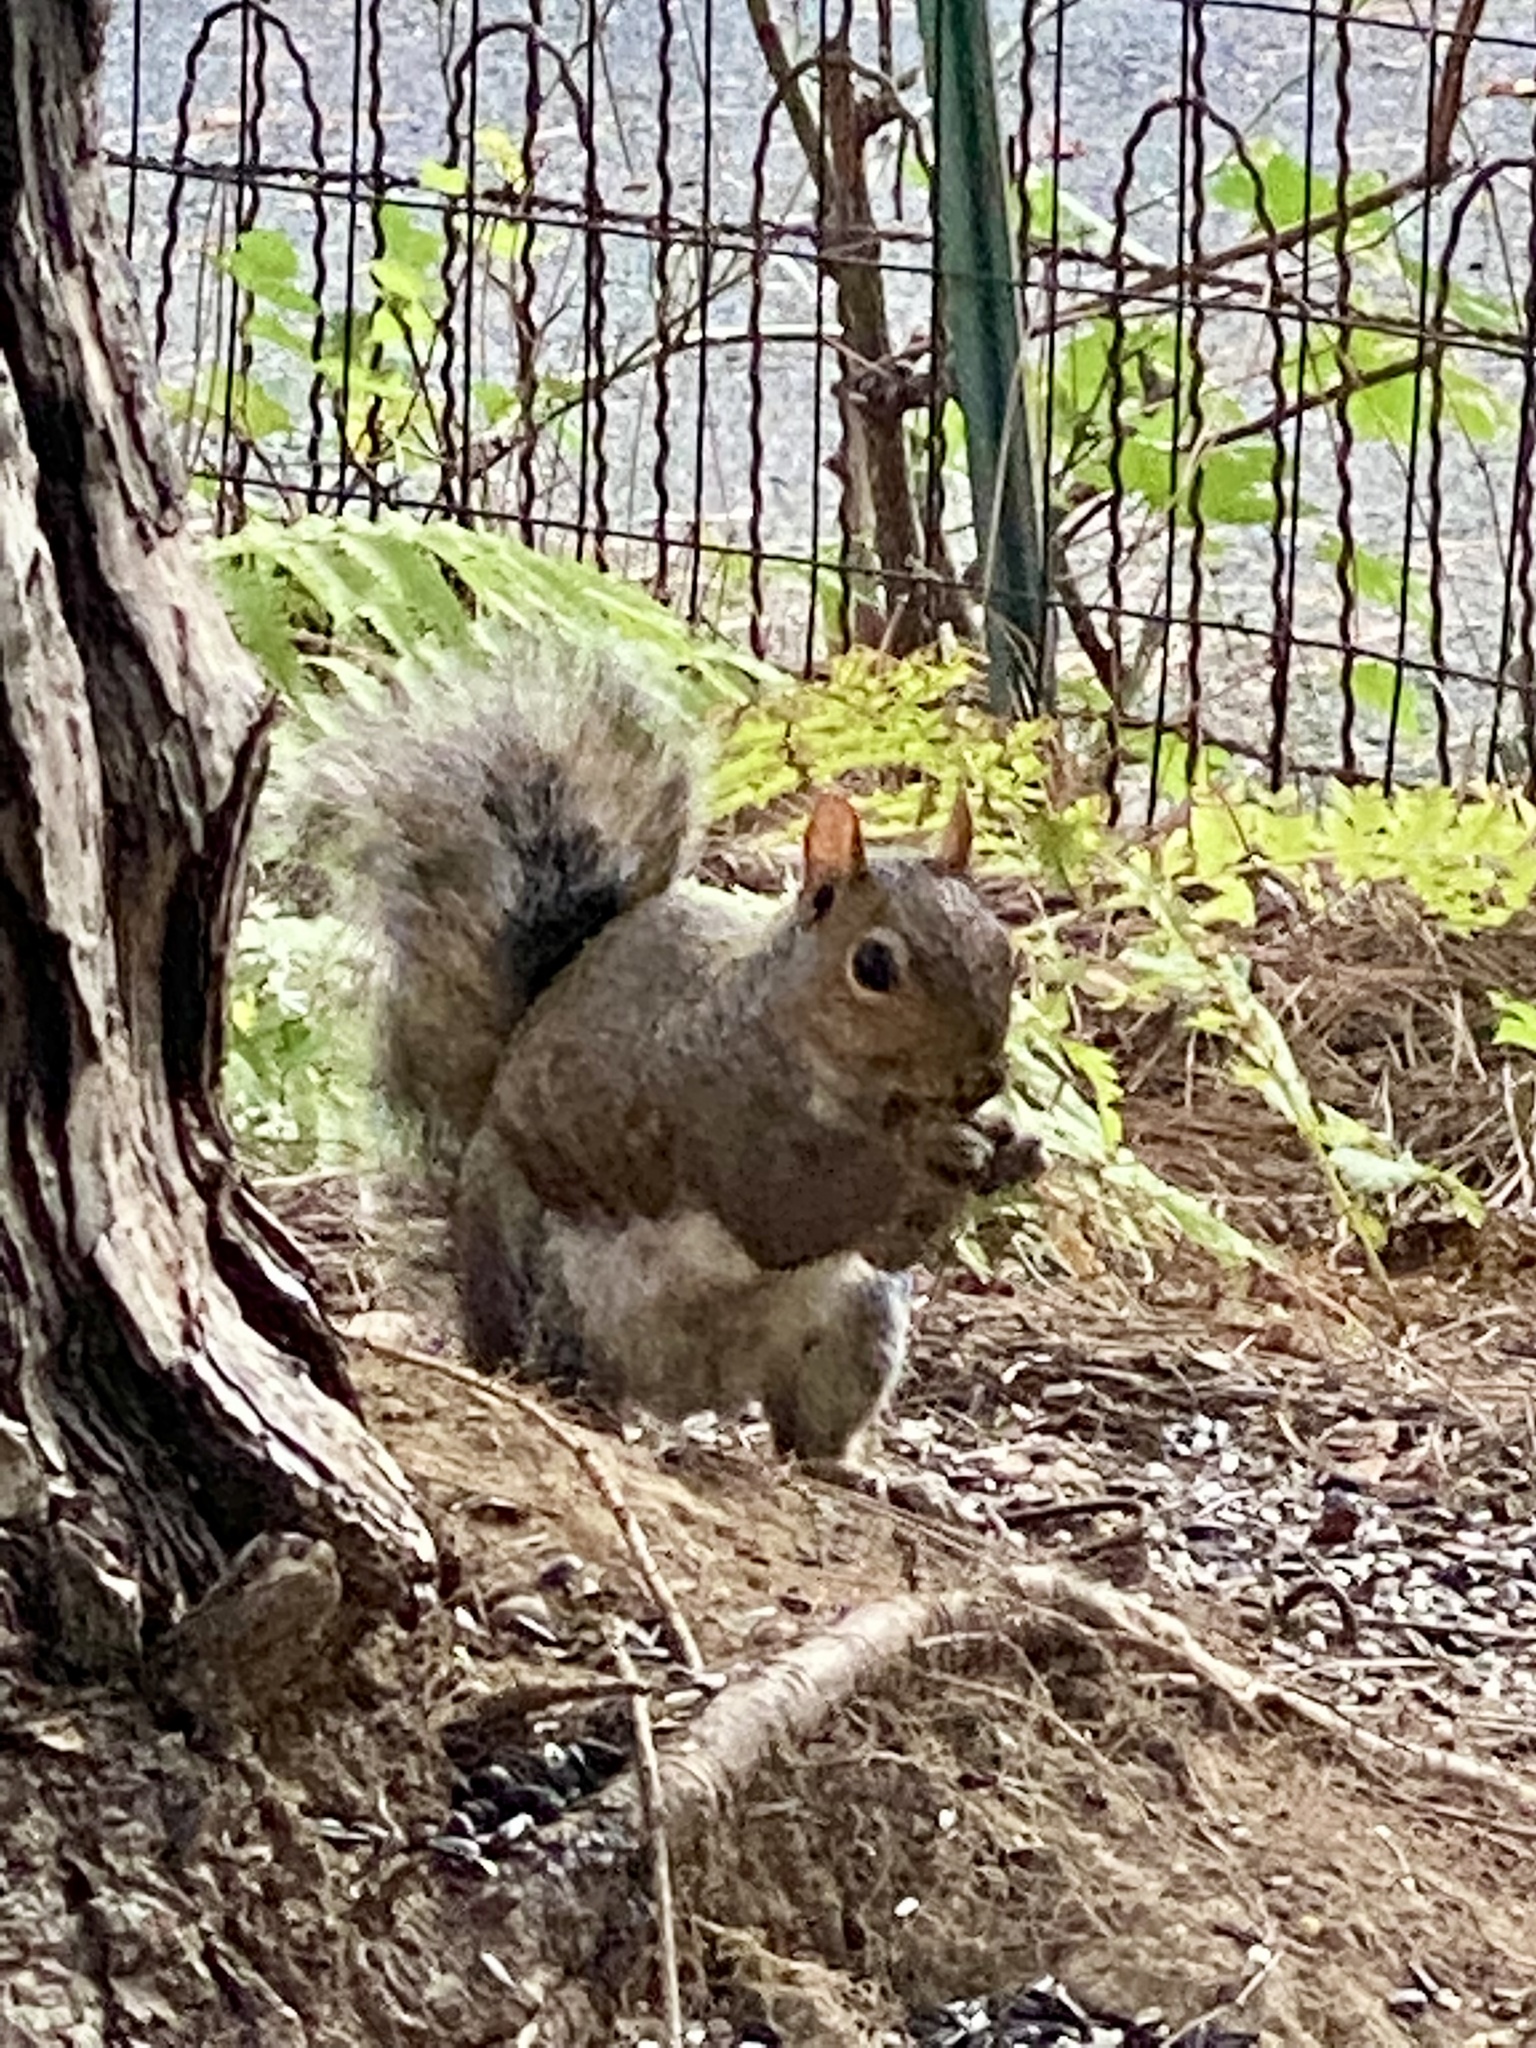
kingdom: Animalia
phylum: Chordata
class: Mammalia
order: Rodentia
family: Sciuridae
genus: Sciurus
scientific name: Sciurus carolinensis
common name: Eastern gray squirrel
